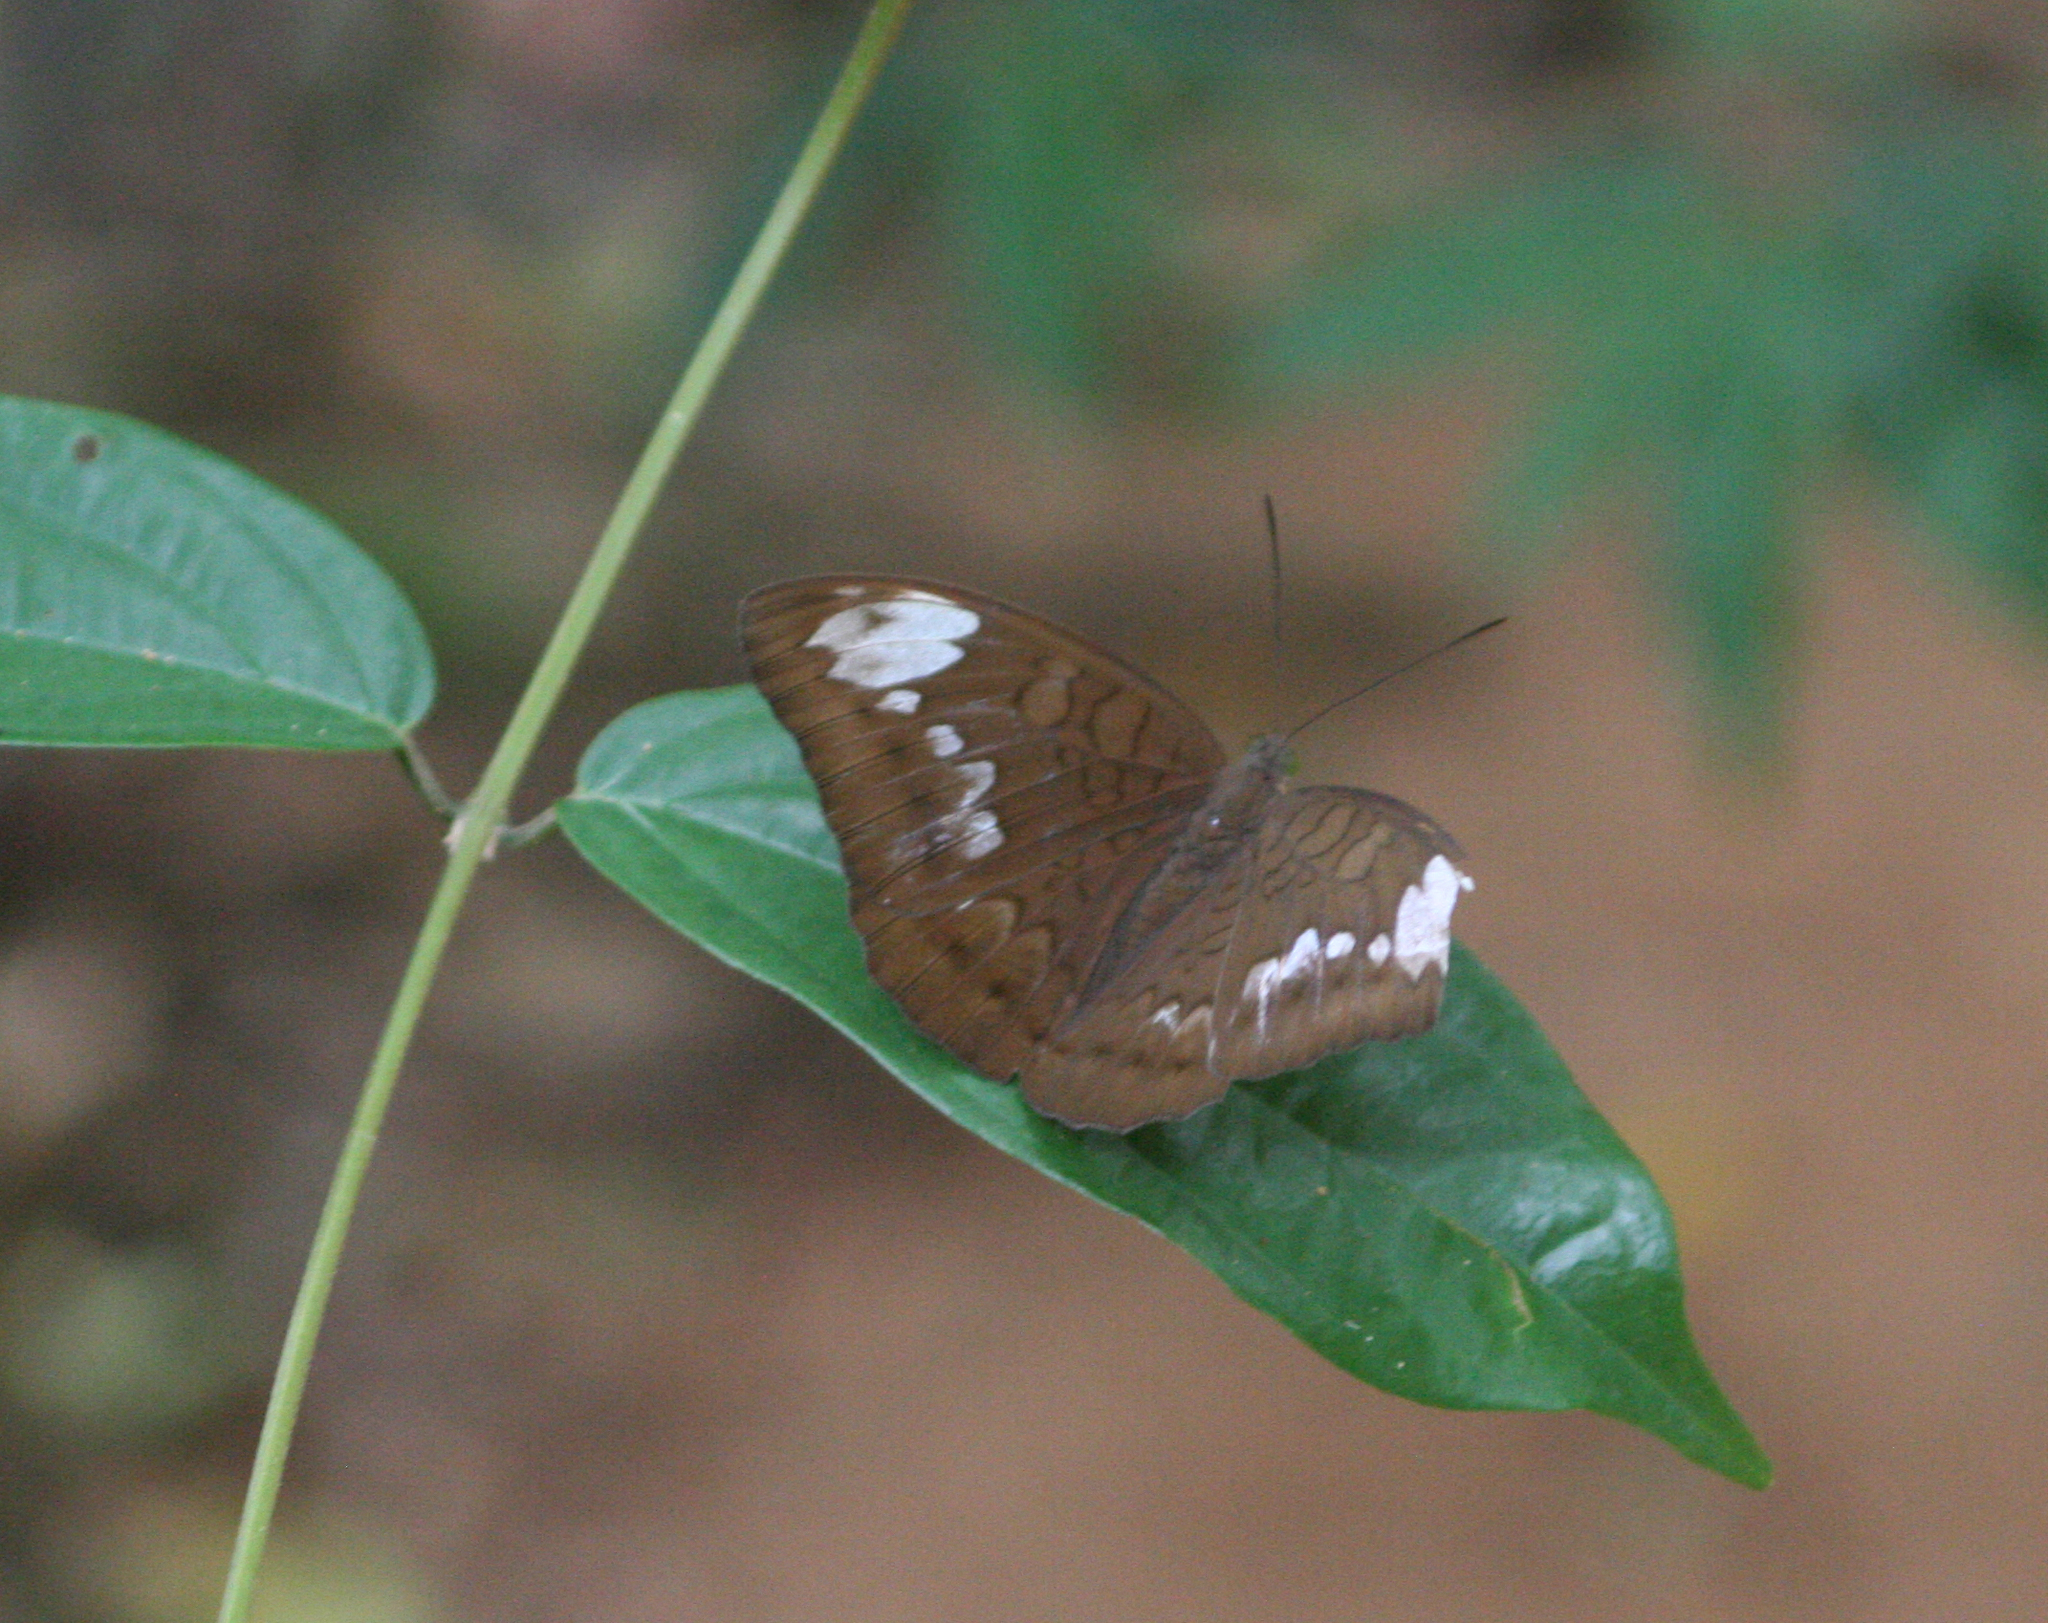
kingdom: Animalia
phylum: Arthropoda
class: Insecta
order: Lepidoptera
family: Nymphalidae
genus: Tanaecia
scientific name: Tanaecia julii
